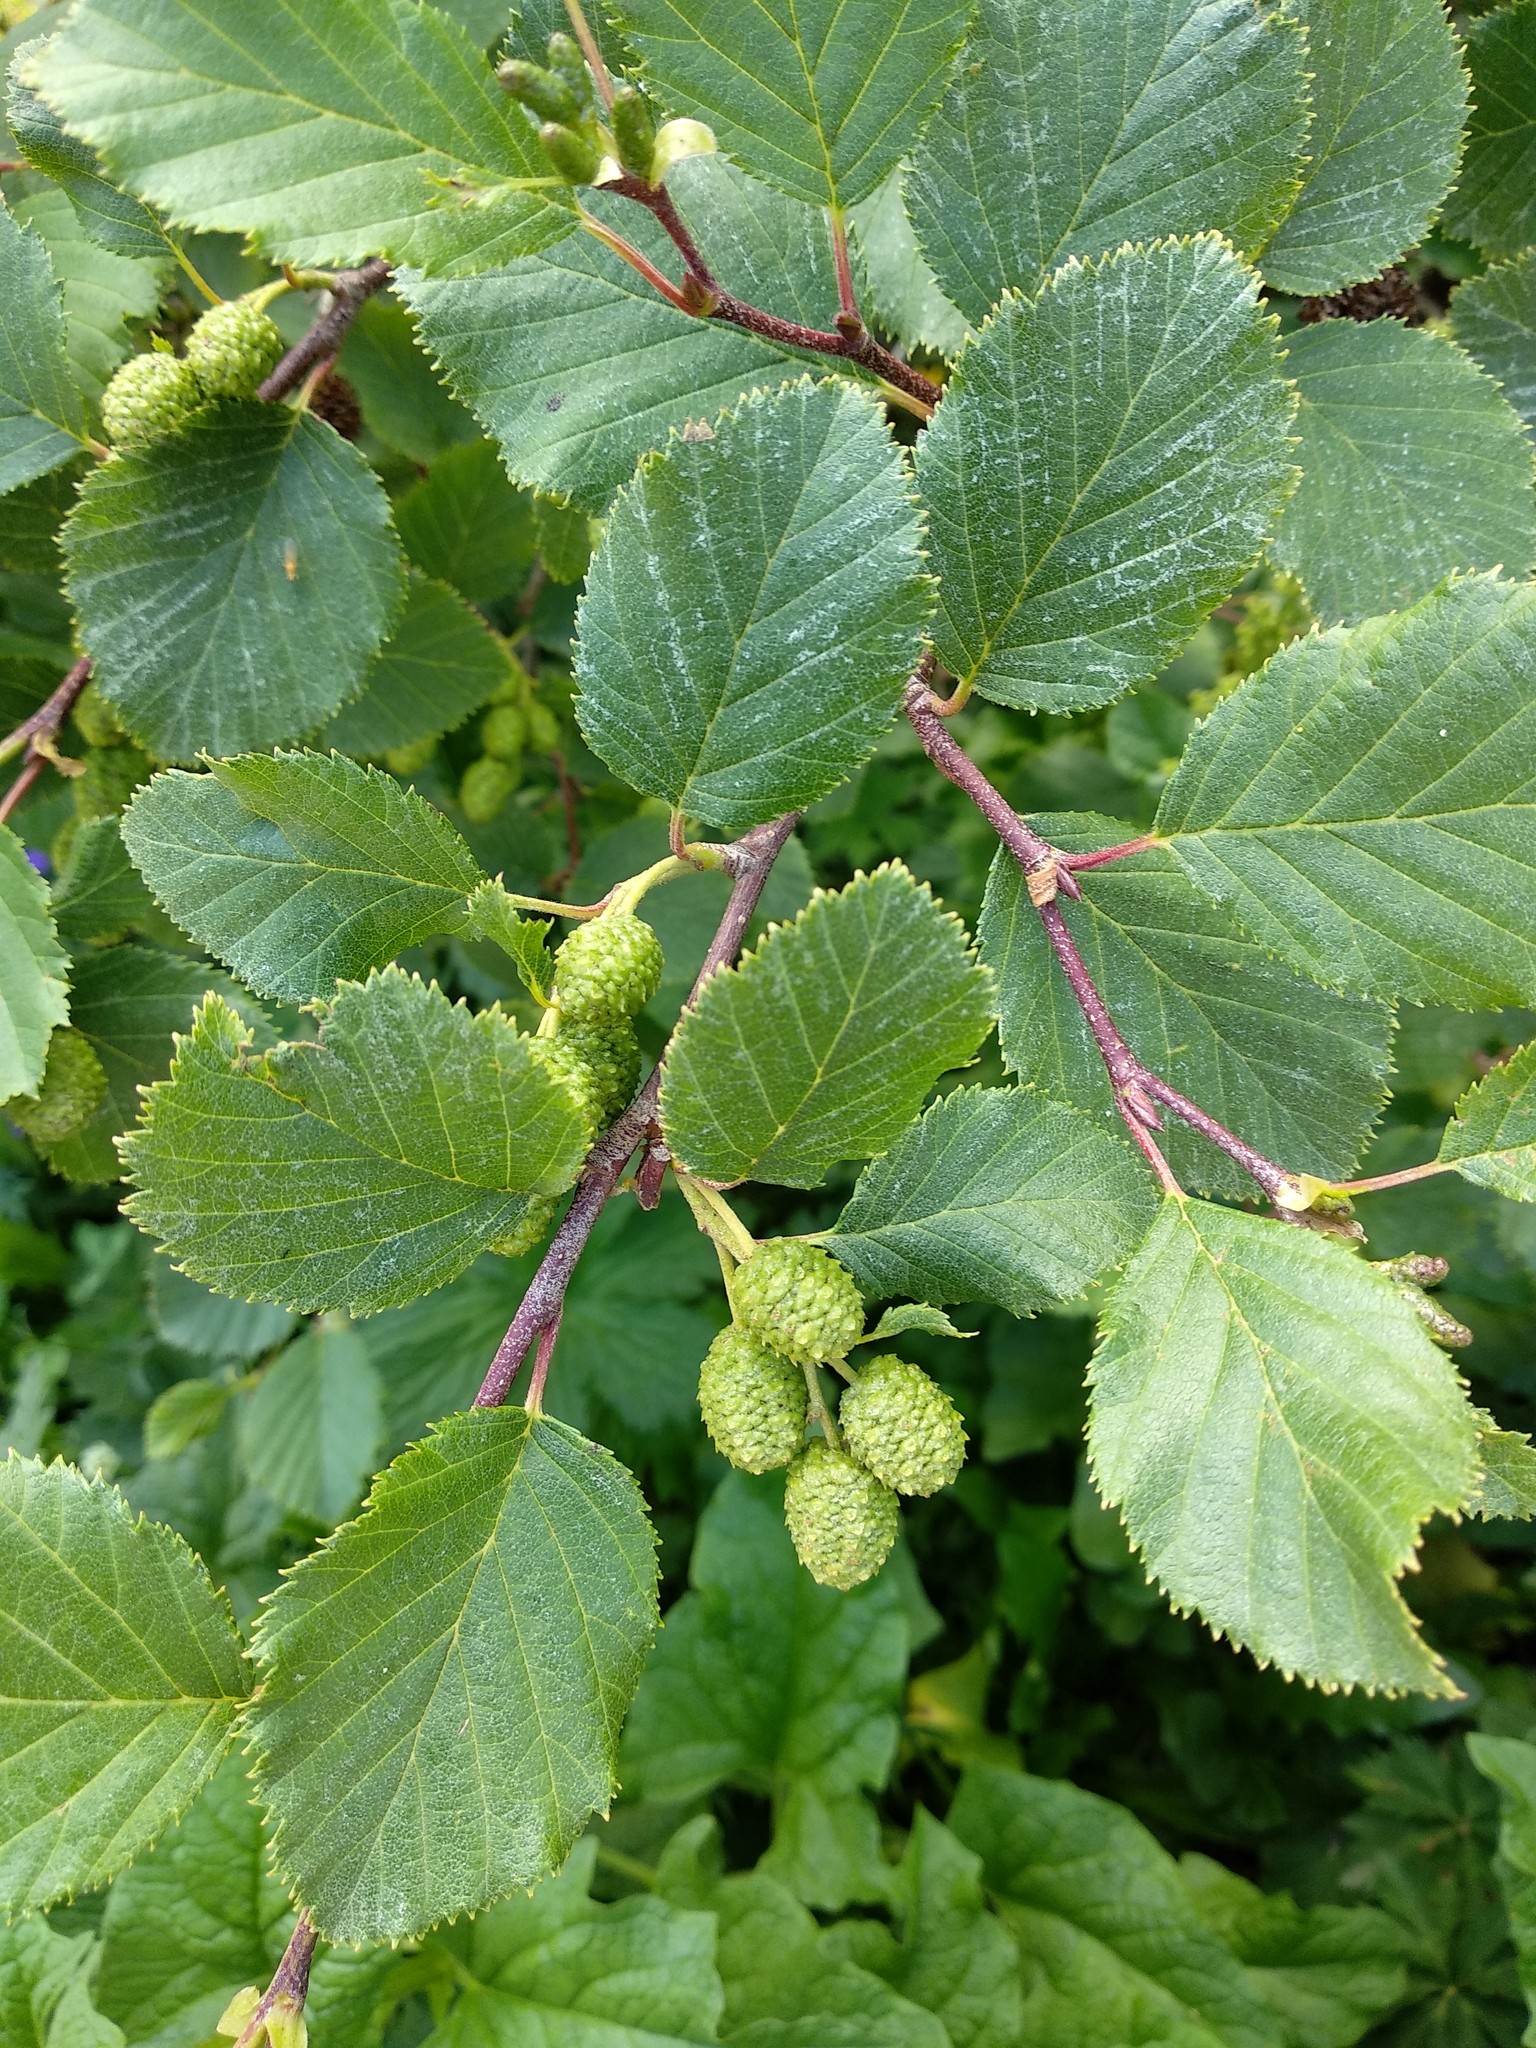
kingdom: Plantae
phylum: Tracheophyta
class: Magnoliopsida
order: Fagales
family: Betulaceae
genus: Alnus
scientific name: Alnus alnobetula
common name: Green alder
